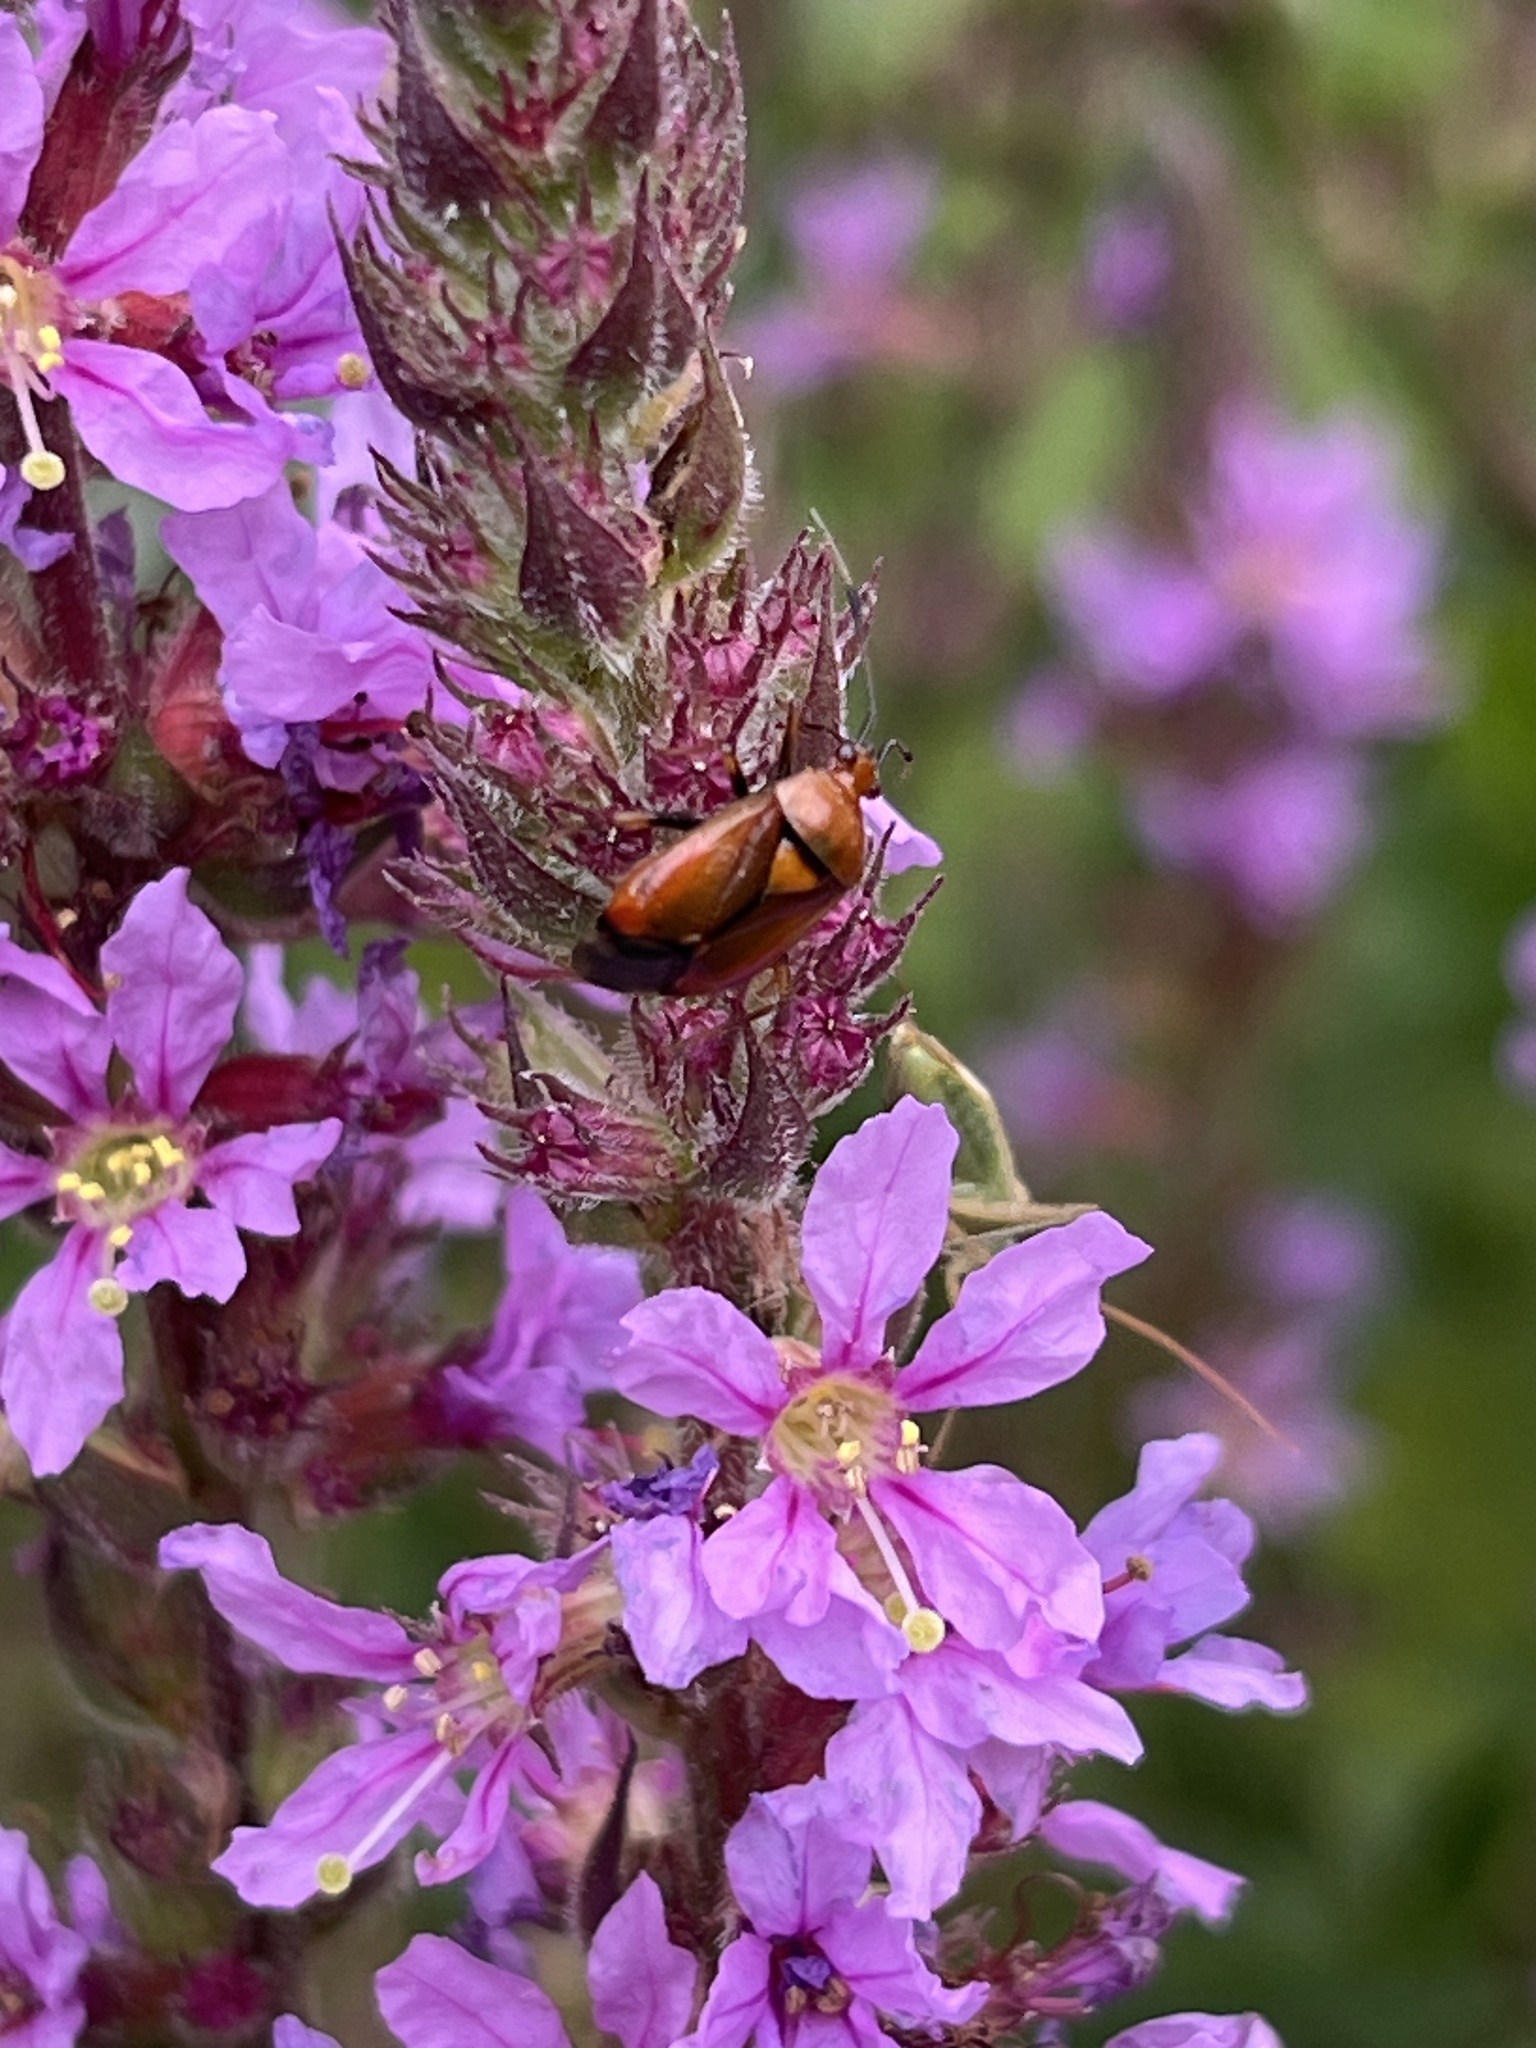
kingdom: Animalia
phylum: Arthropoda
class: Insecta
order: Hemiptera
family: Miridae
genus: Deraeocoris
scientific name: Deraeocoris ruber
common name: Plant bug
